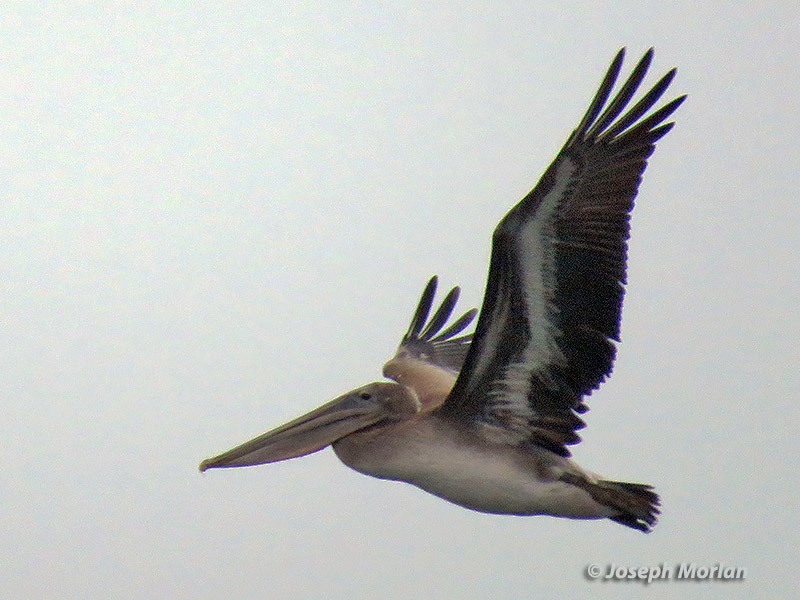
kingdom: Animalia
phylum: Chordata
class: Aves
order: Pelecaniformes
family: Pelecanidae
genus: Pelecanus
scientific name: Pelecanus occidentalis
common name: Brown pelican
